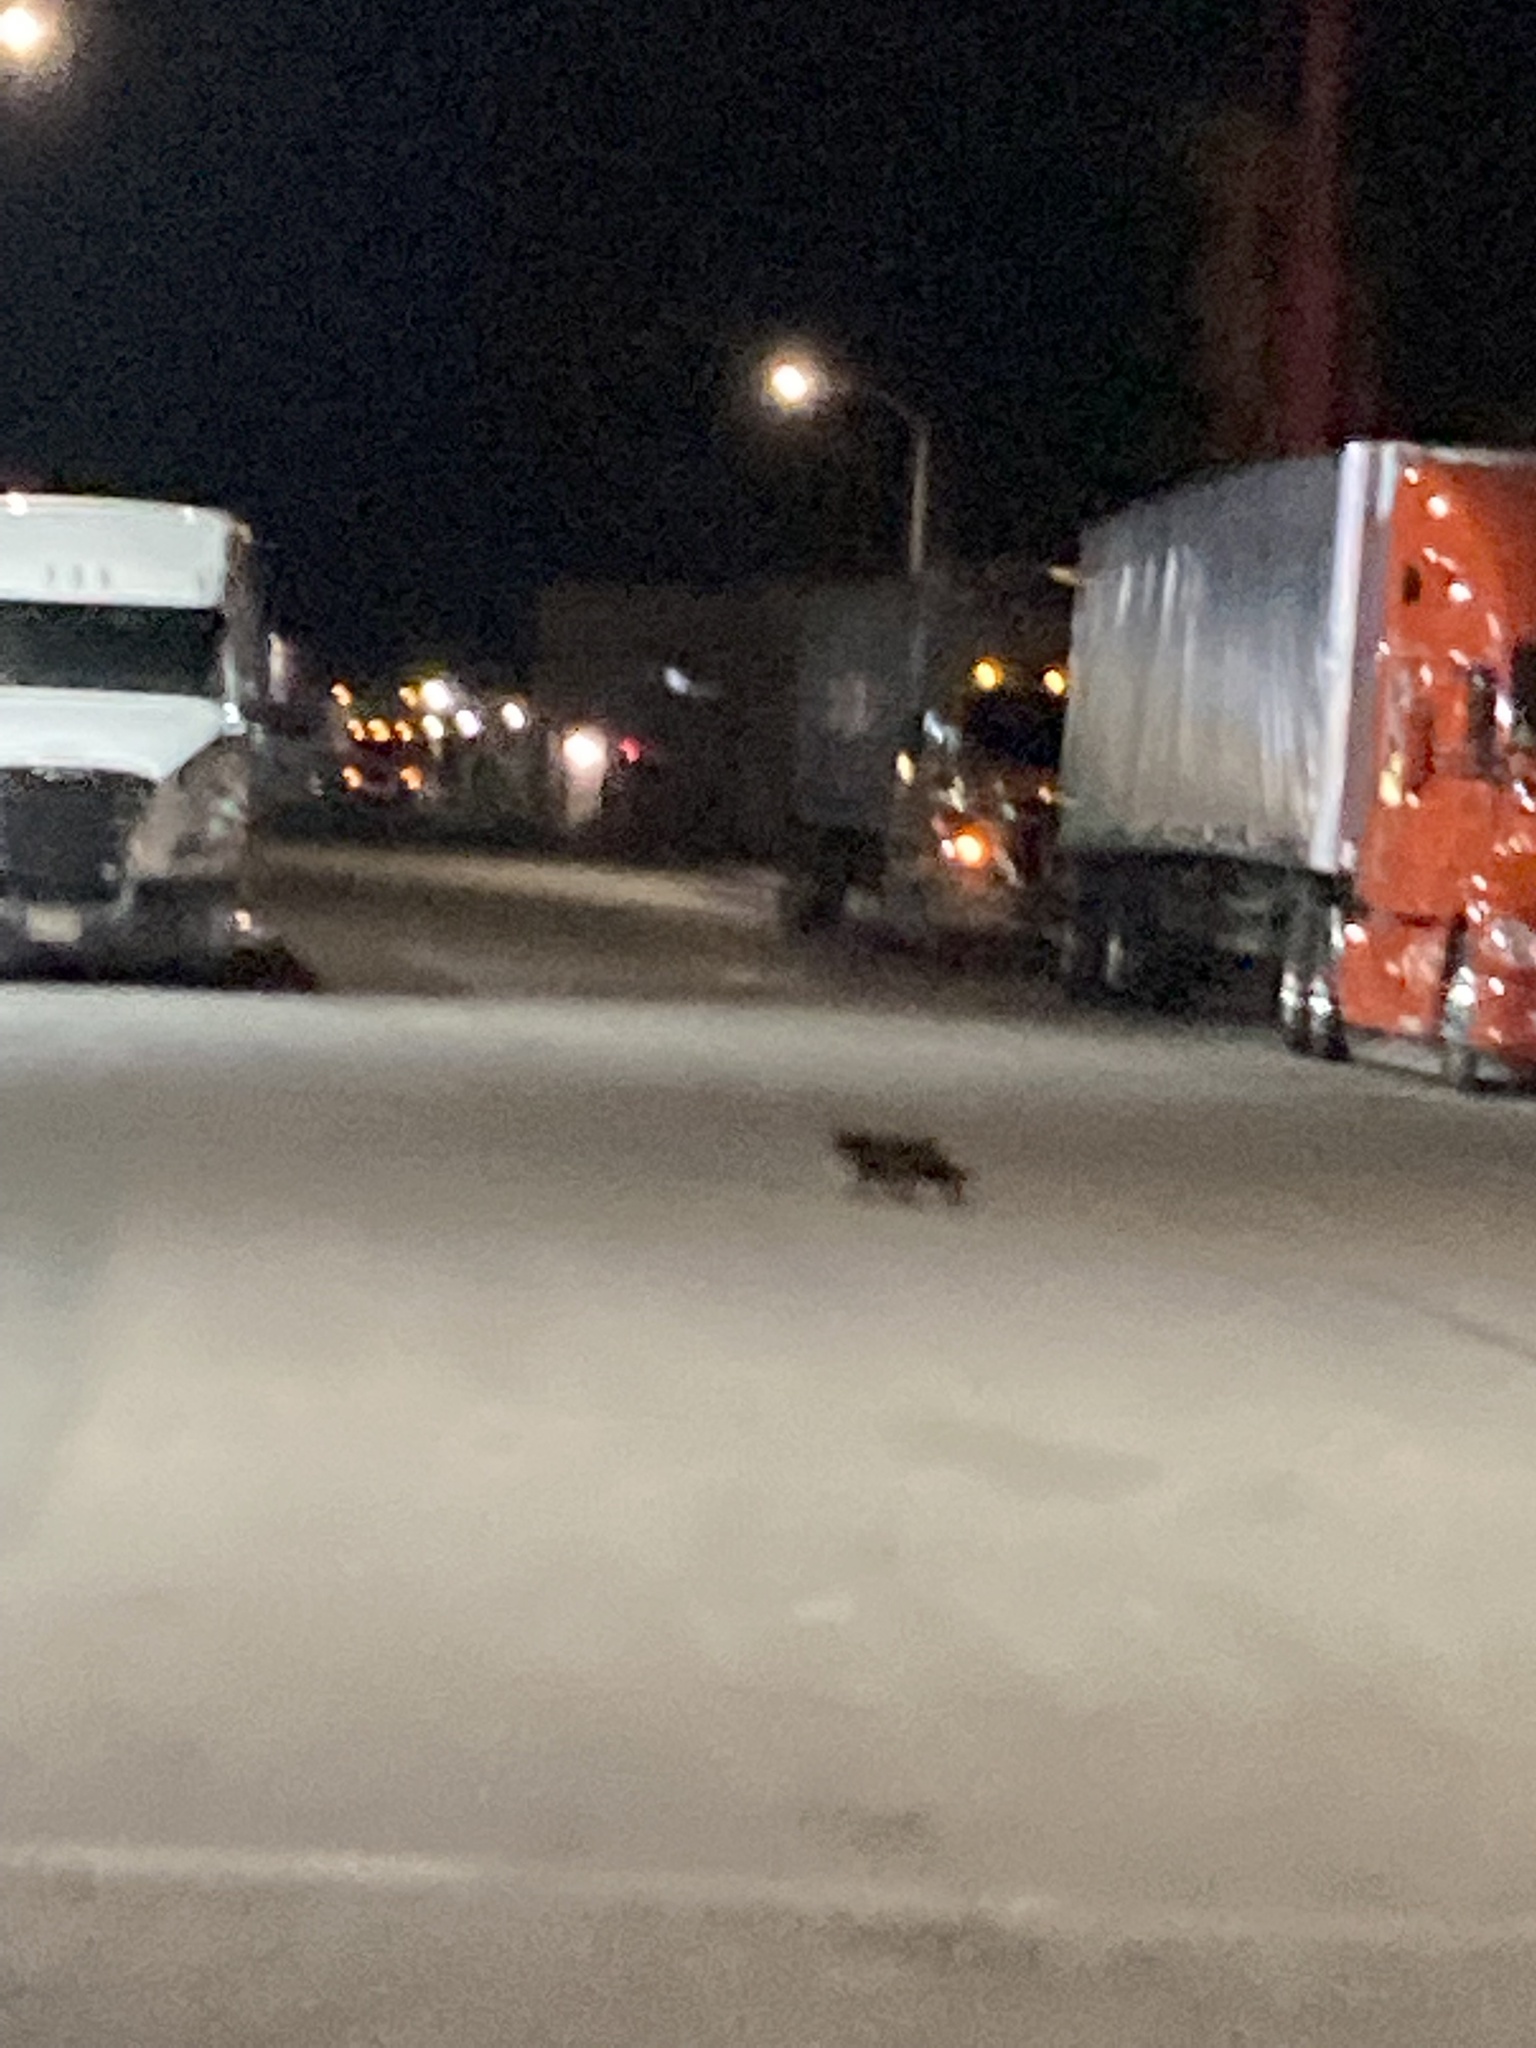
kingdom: Animalia
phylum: Chordata
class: Mammalia
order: Carnivora
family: Felidae
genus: Felis
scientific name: Felis catus
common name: Domestic cat
